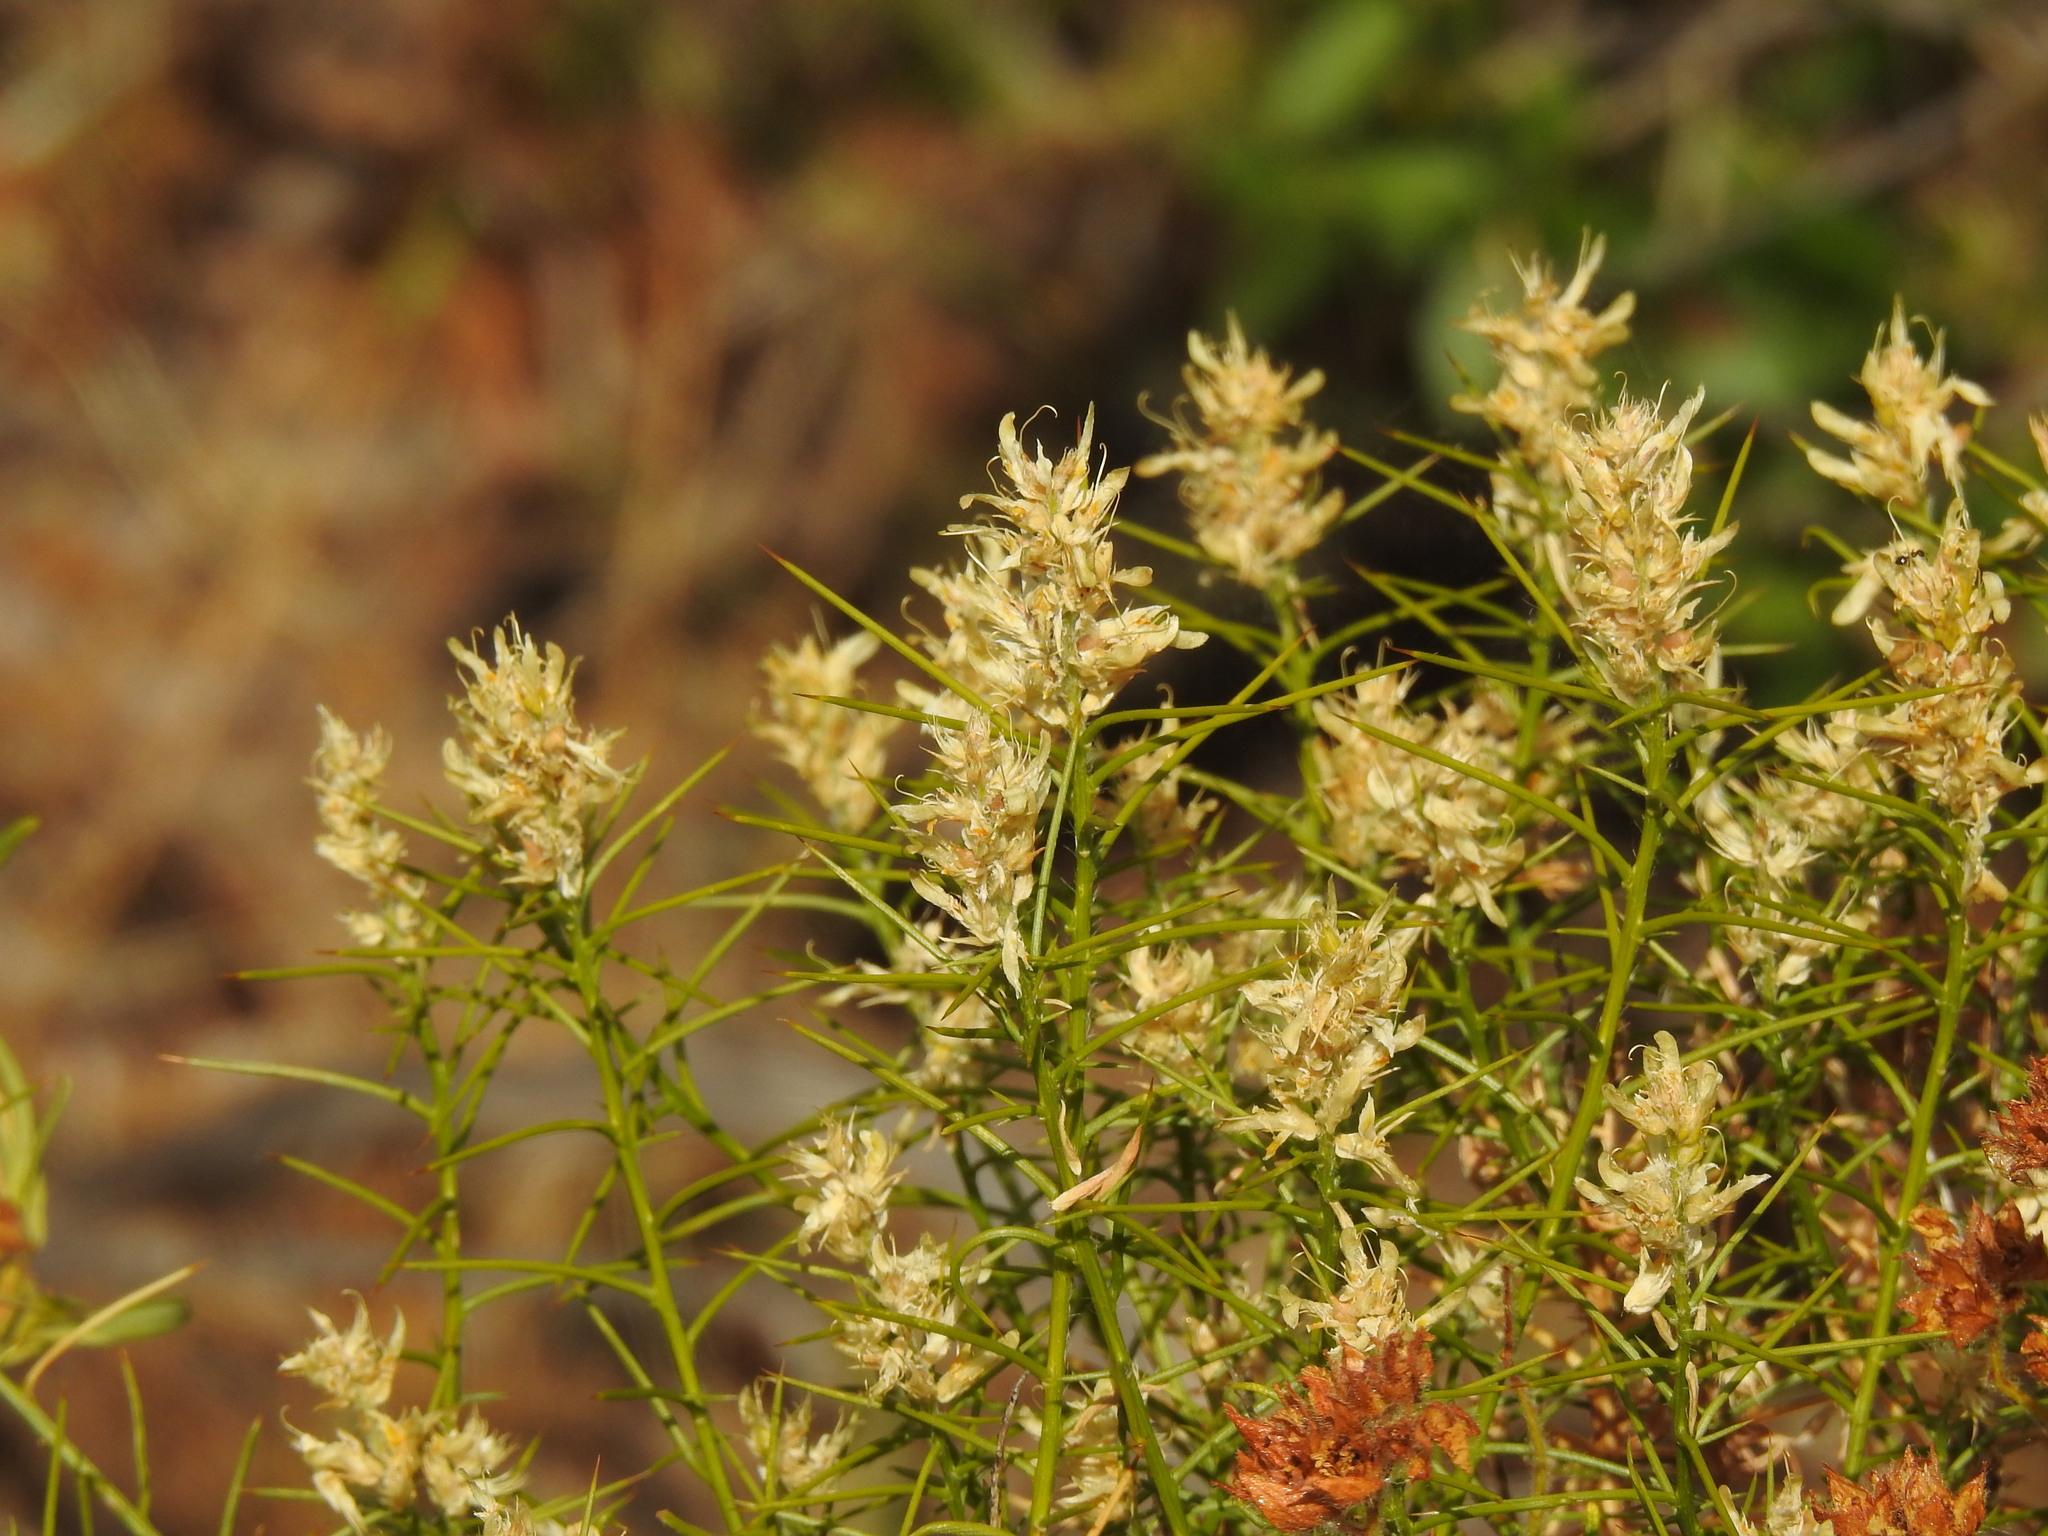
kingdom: Plantae
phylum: Tracheophyta
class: Magnoliopsida
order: Fabales
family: Fabaceae
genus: Genista
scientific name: Genista hirsuta
